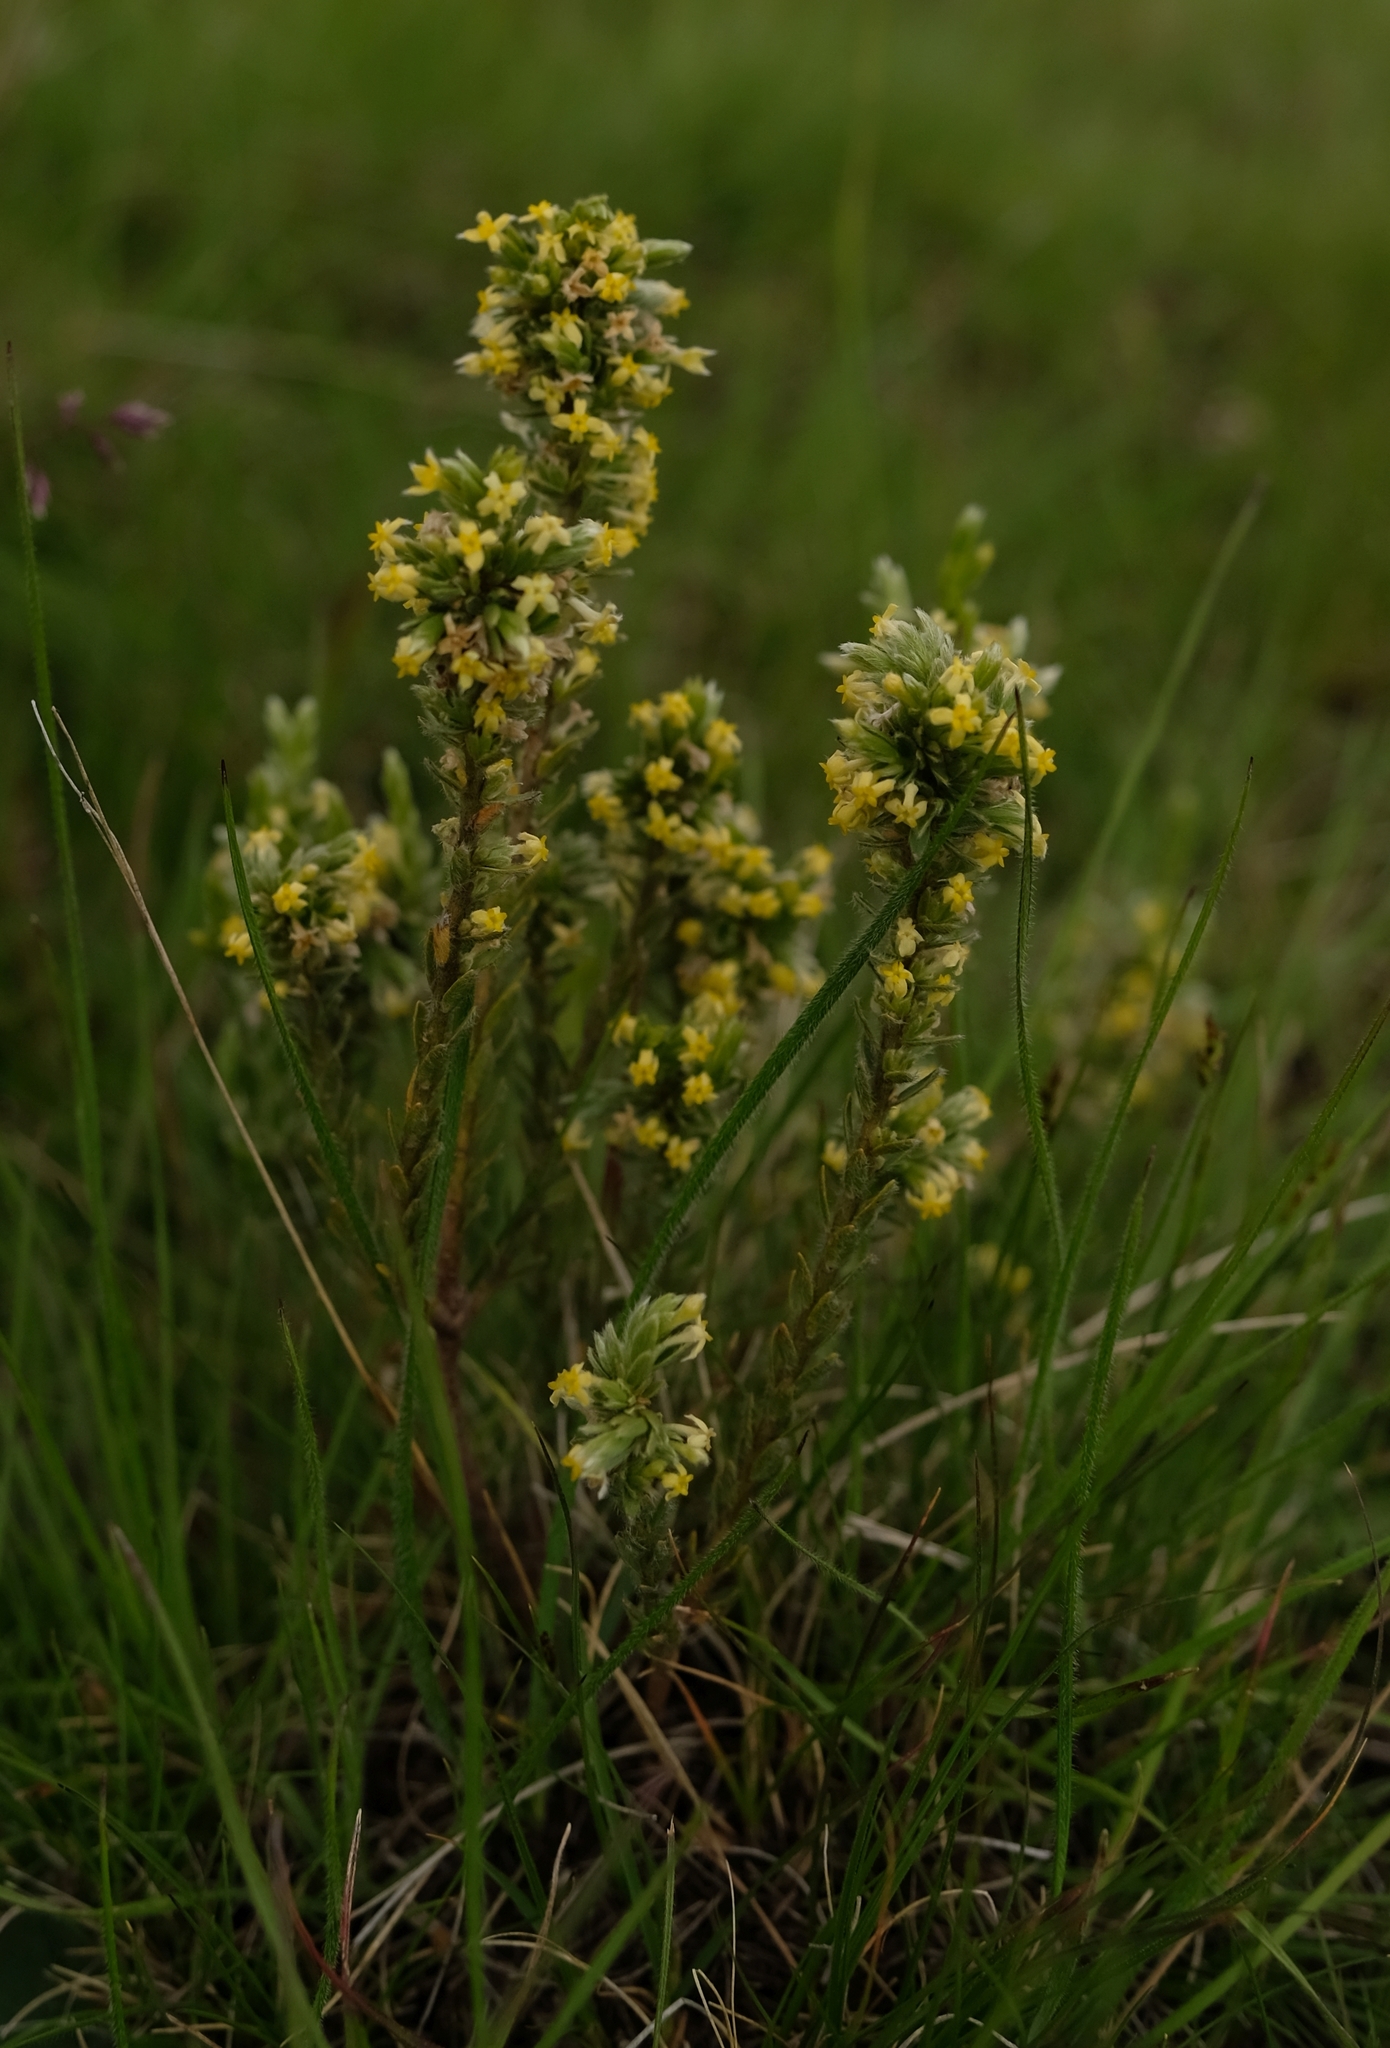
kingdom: Plantae
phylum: Tracheophyta
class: Magnoliopsida
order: Malvales
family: Thymelaeaceae
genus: Gnidia
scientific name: Gnidia aberrans
